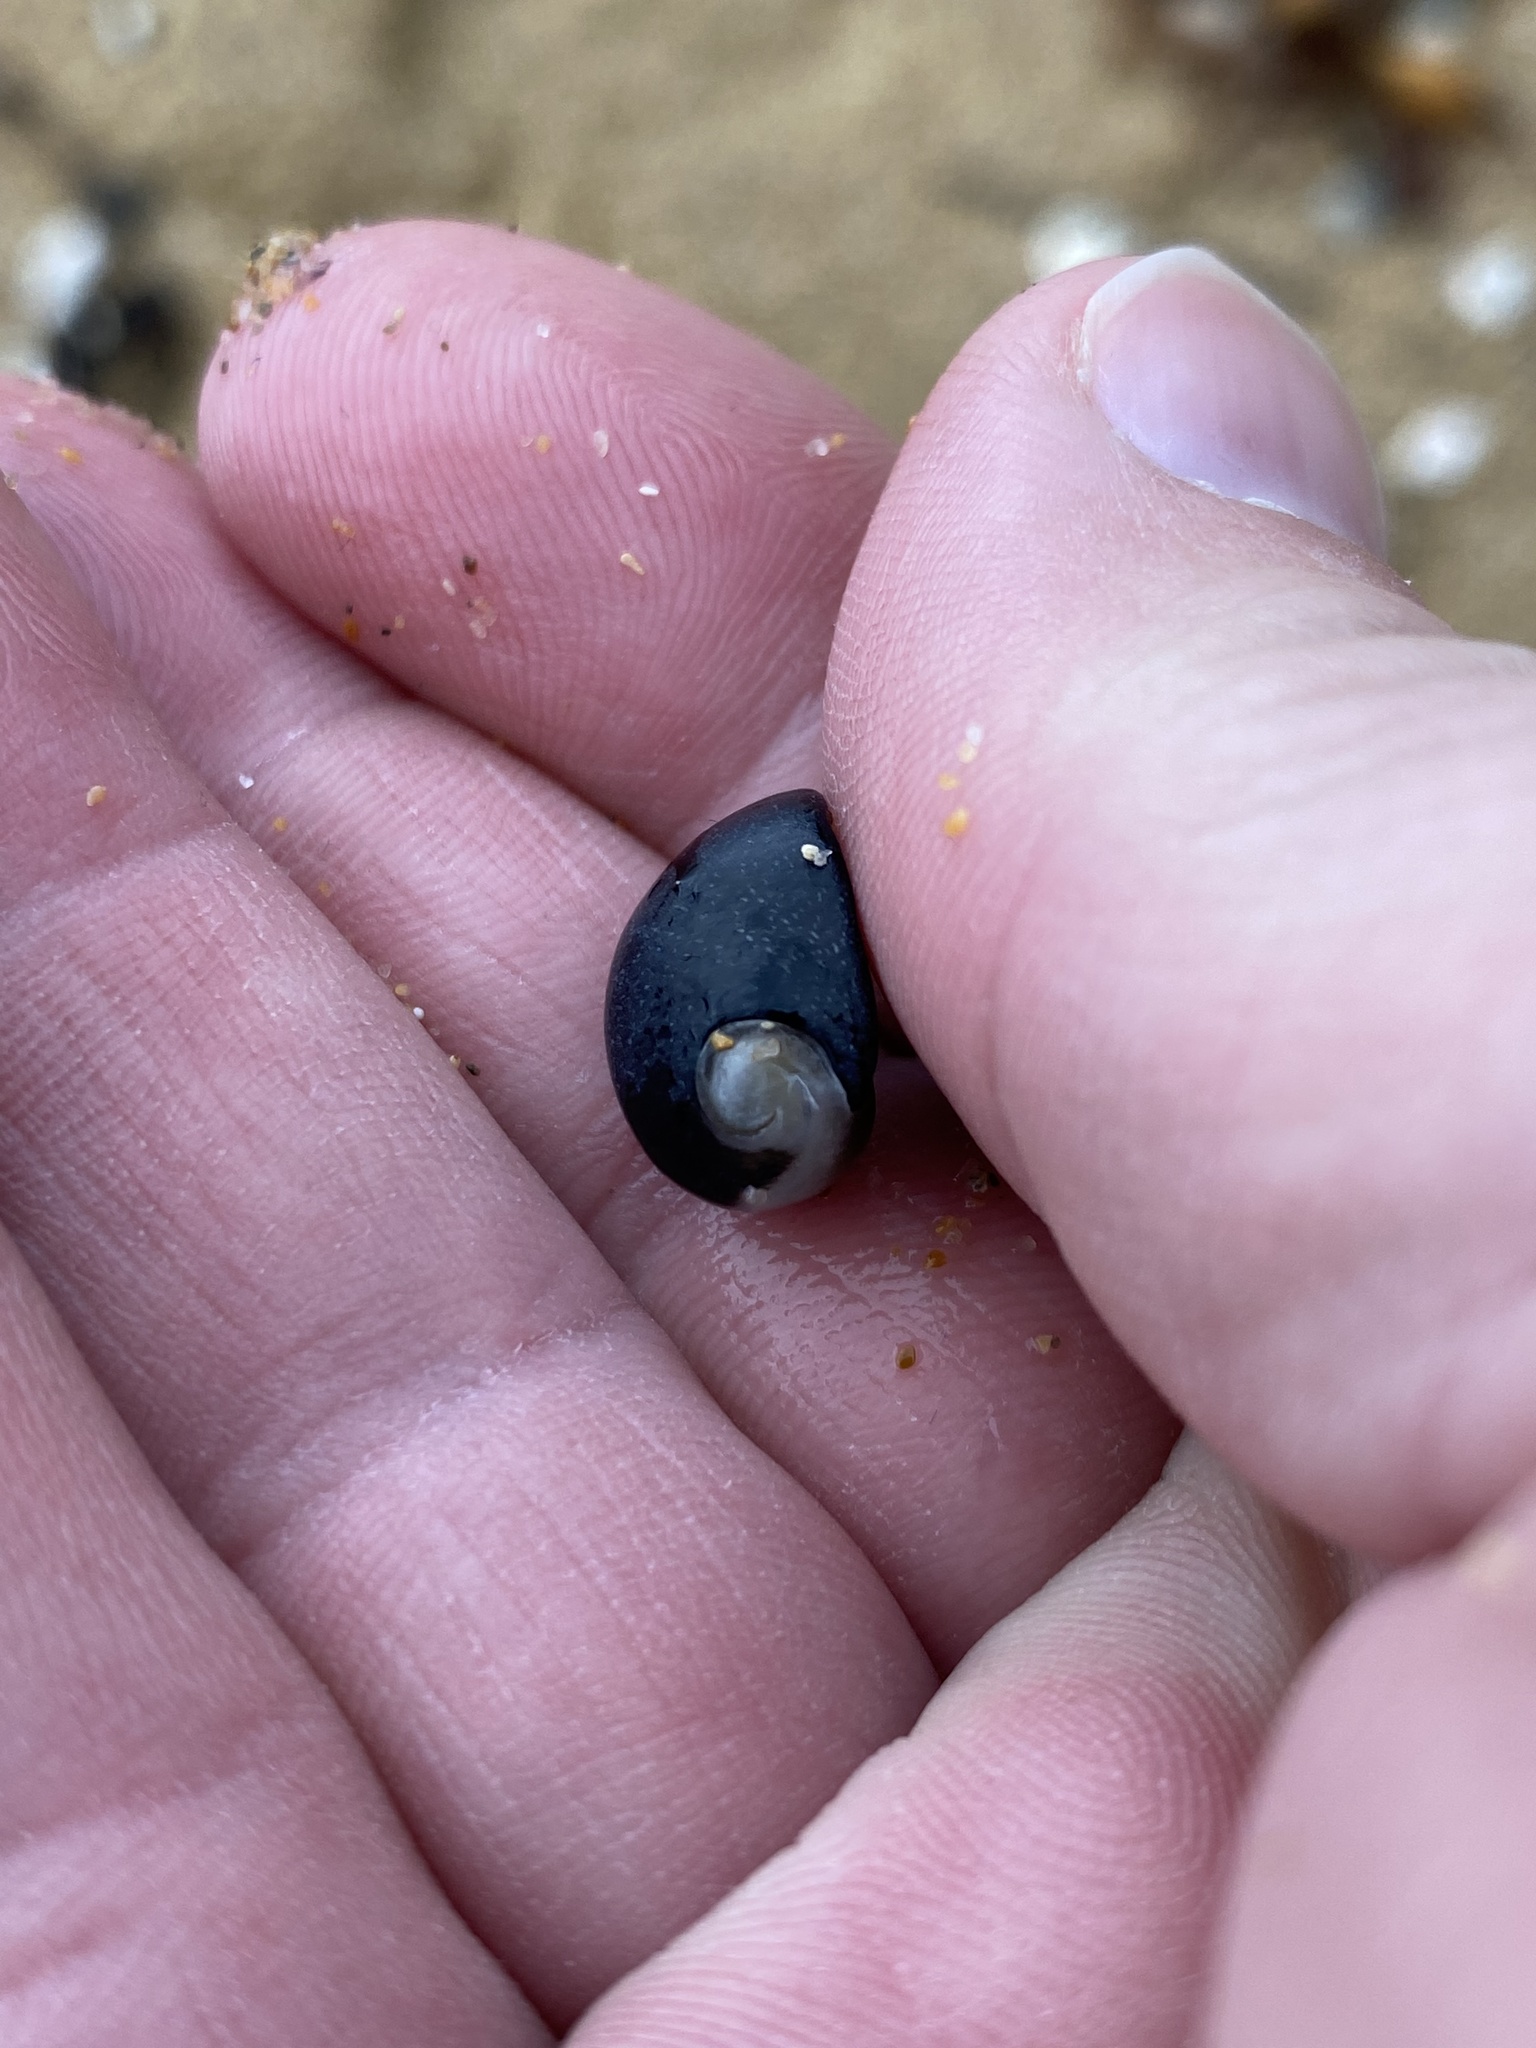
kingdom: Animalia
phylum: Mollusca
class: Gastropoda
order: Cycloneritida
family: Neritidae
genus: Nerita
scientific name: Nerita melanotragus
